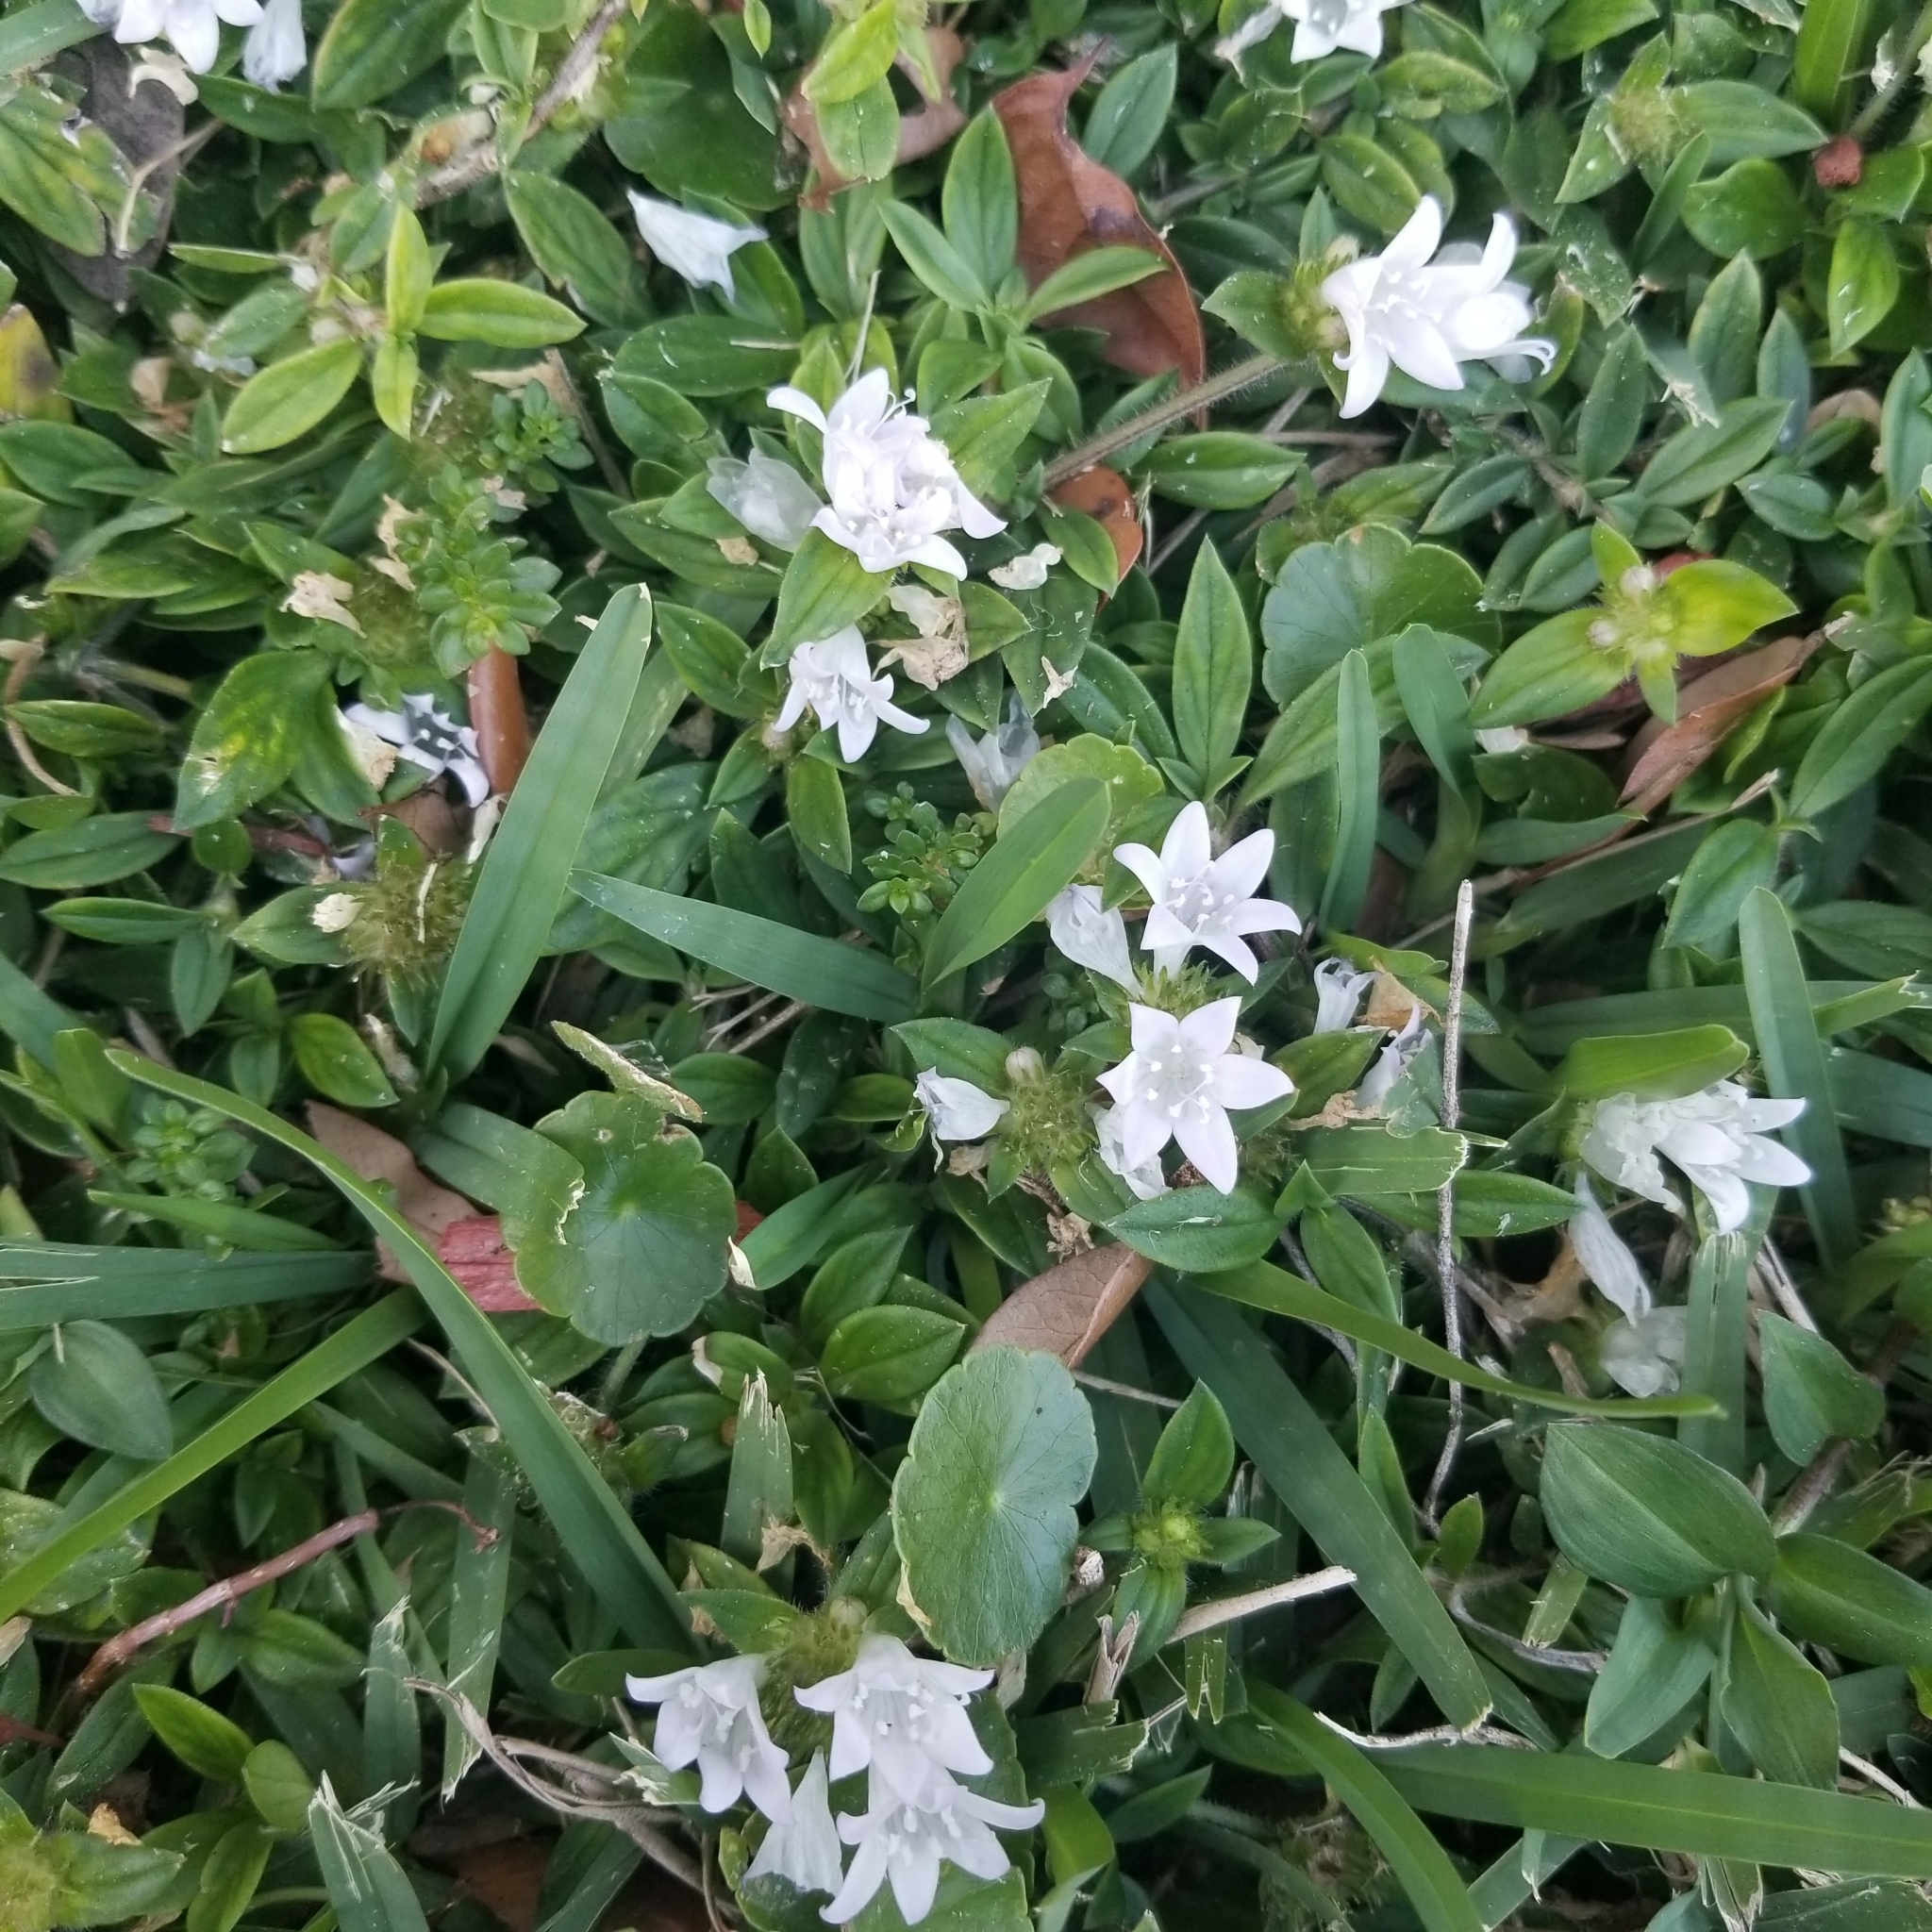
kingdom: Plantae
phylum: Tracheophyta
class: Magnoliopsida
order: Gentianales
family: Rubiaceae
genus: Richardia
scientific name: Richardia grandiflora
